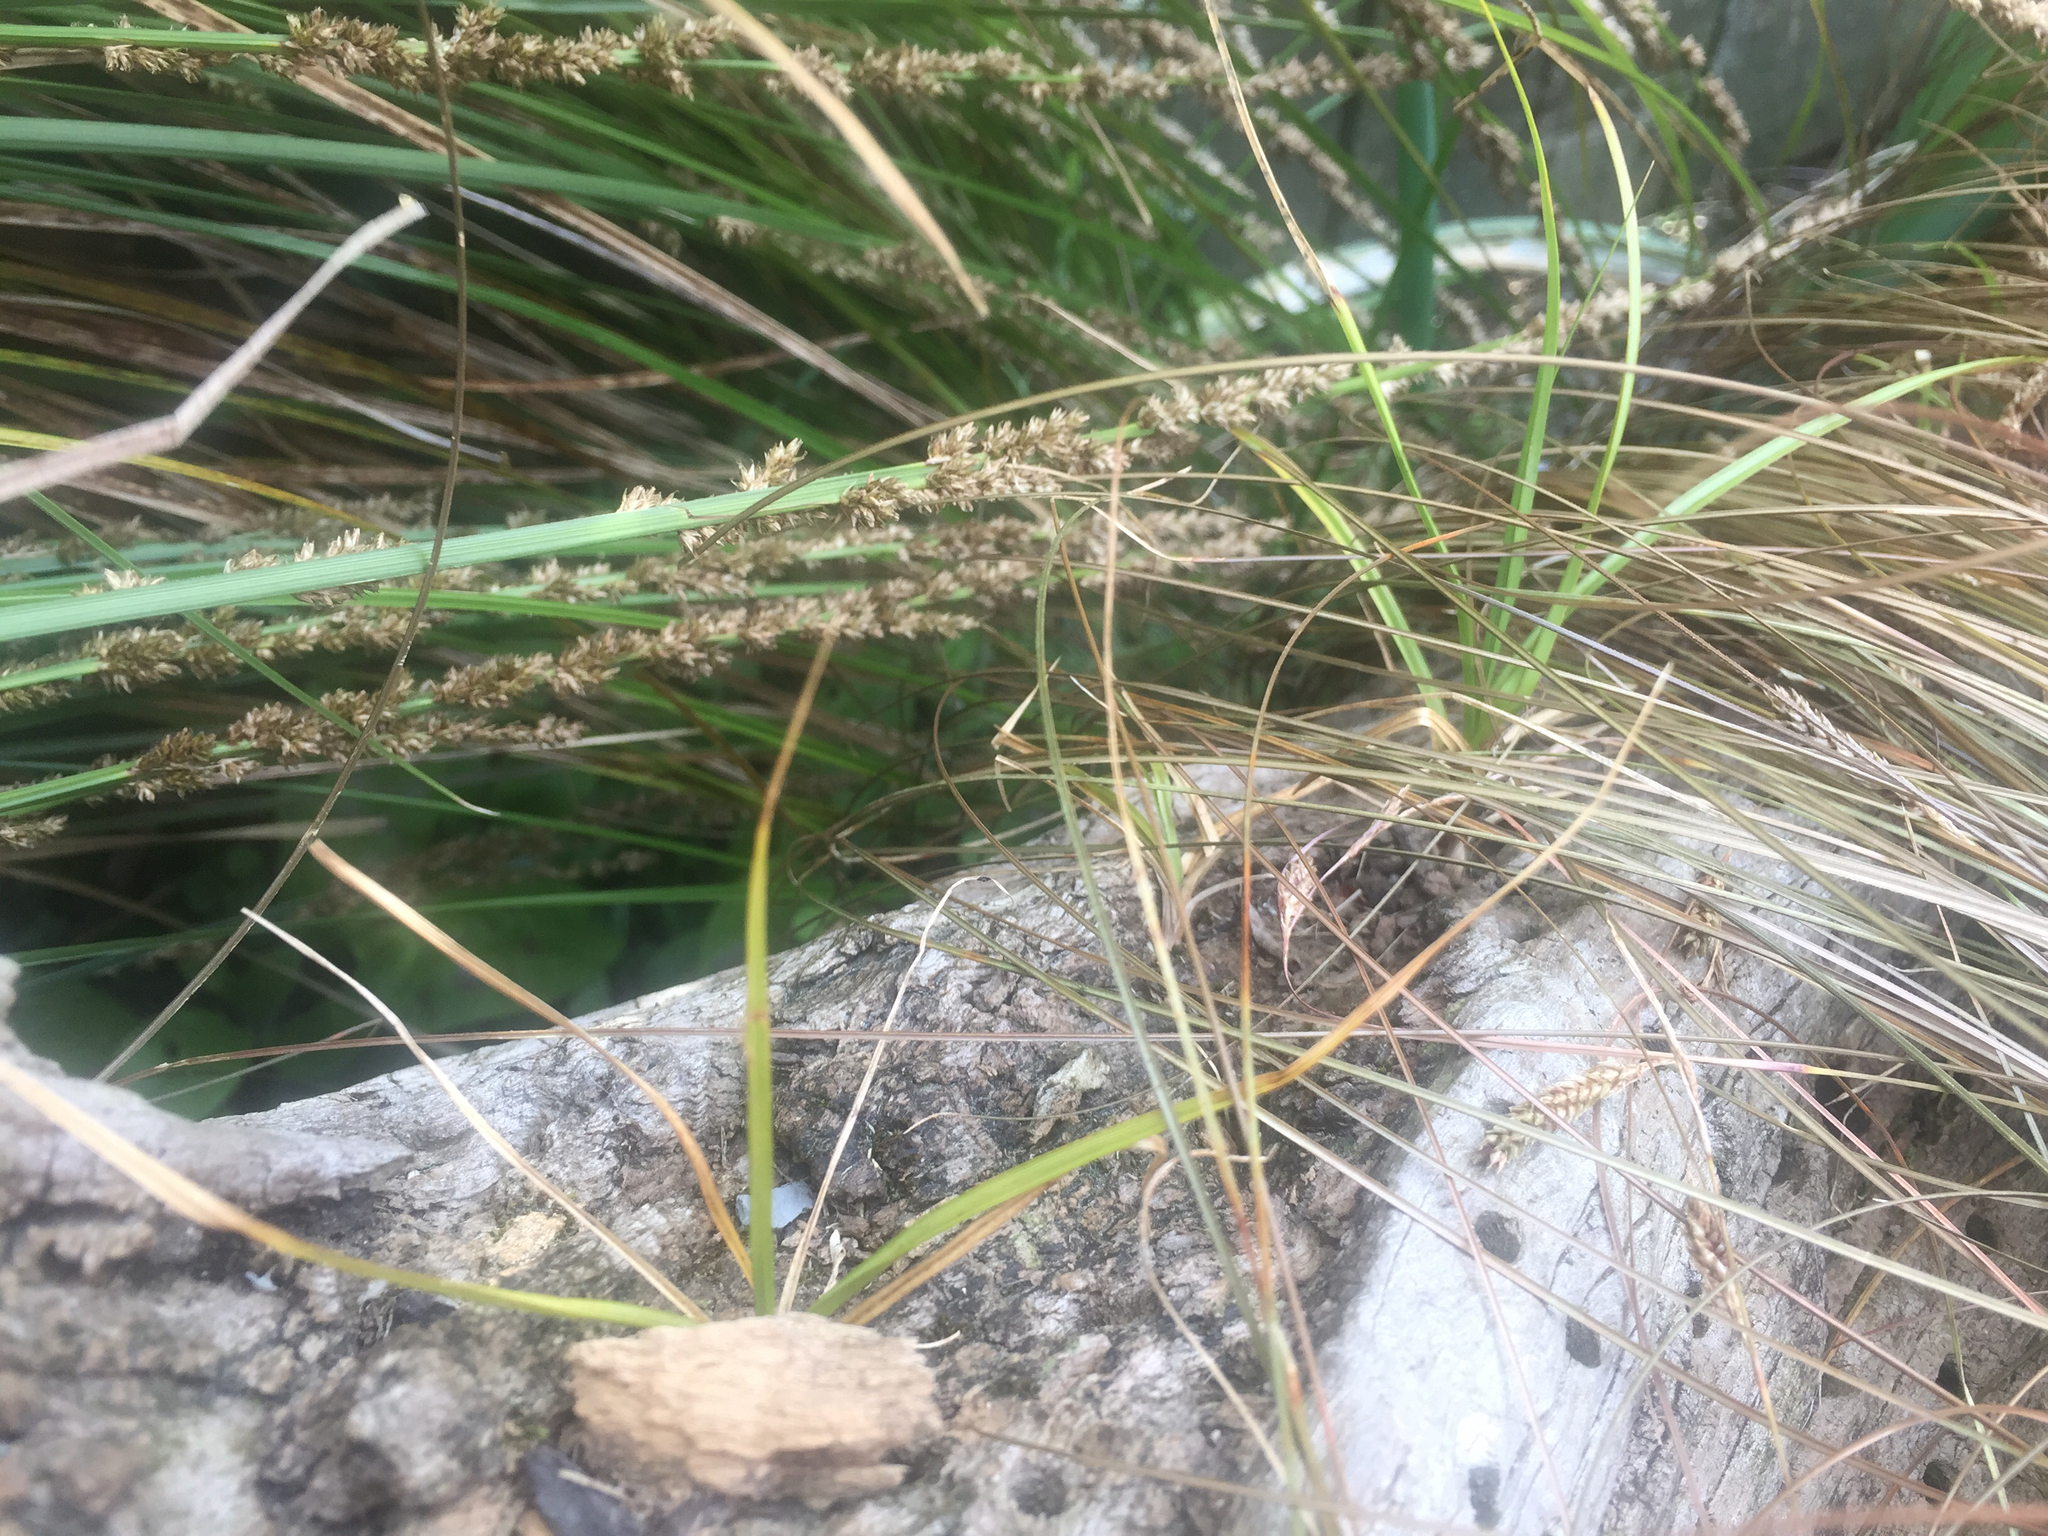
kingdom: Plantae
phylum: Tracheophyta
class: Liliopsida
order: Poales
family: Cyperaceae
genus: Carex
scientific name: Carex virgata
